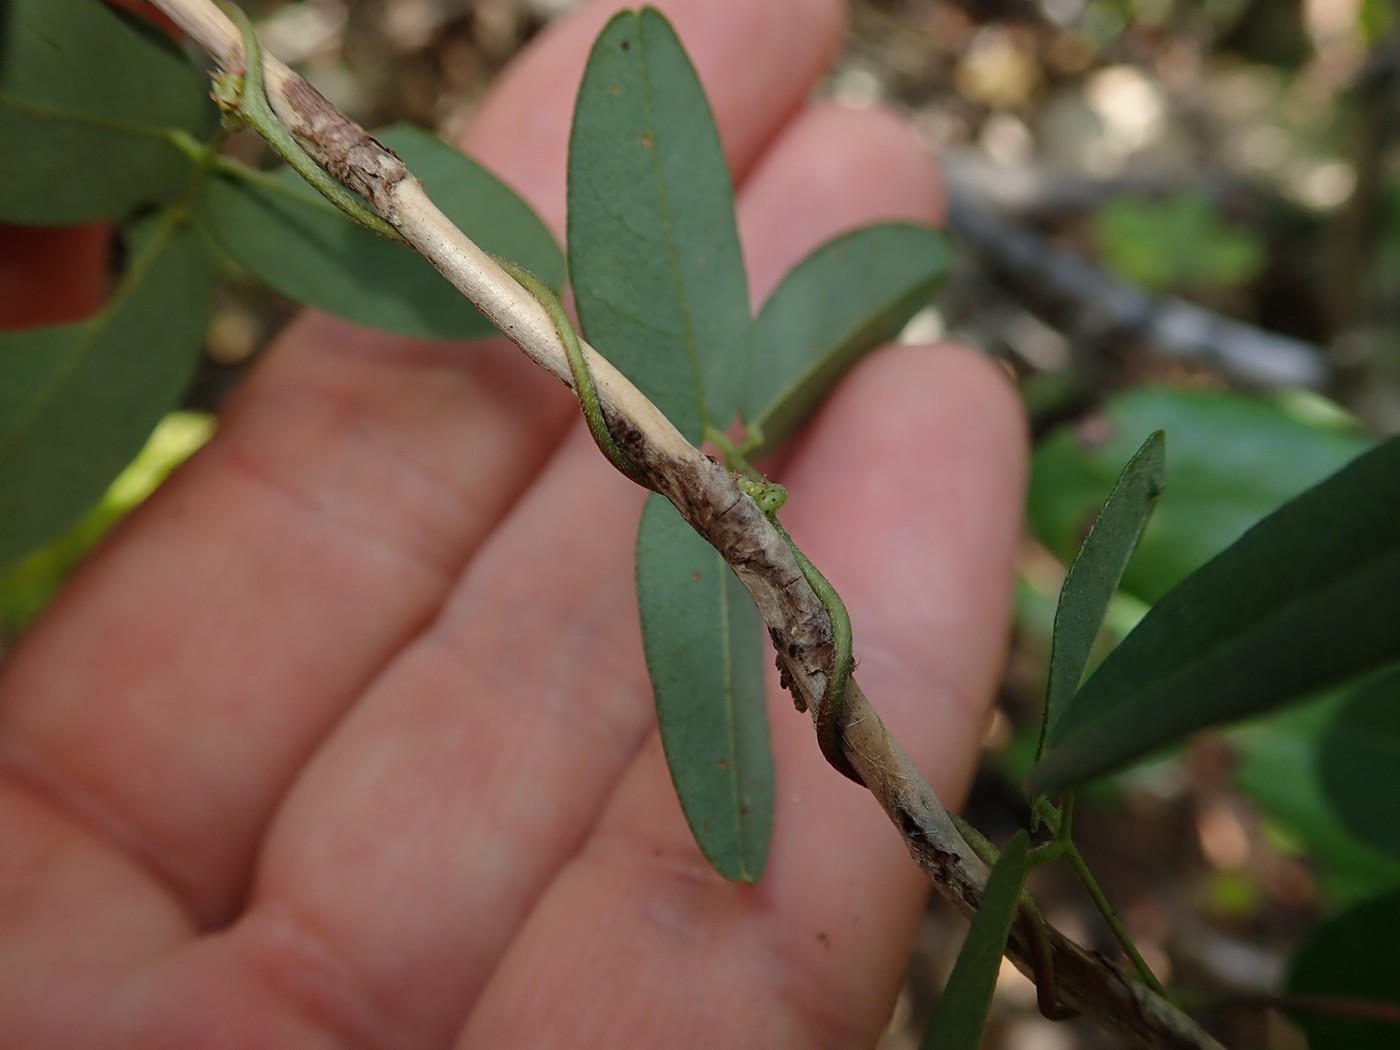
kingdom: Plantae
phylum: Tracheophyta
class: Magnoliopsida
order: Fabales
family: Fabaceae
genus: Galactia
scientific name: Galactia regularis
